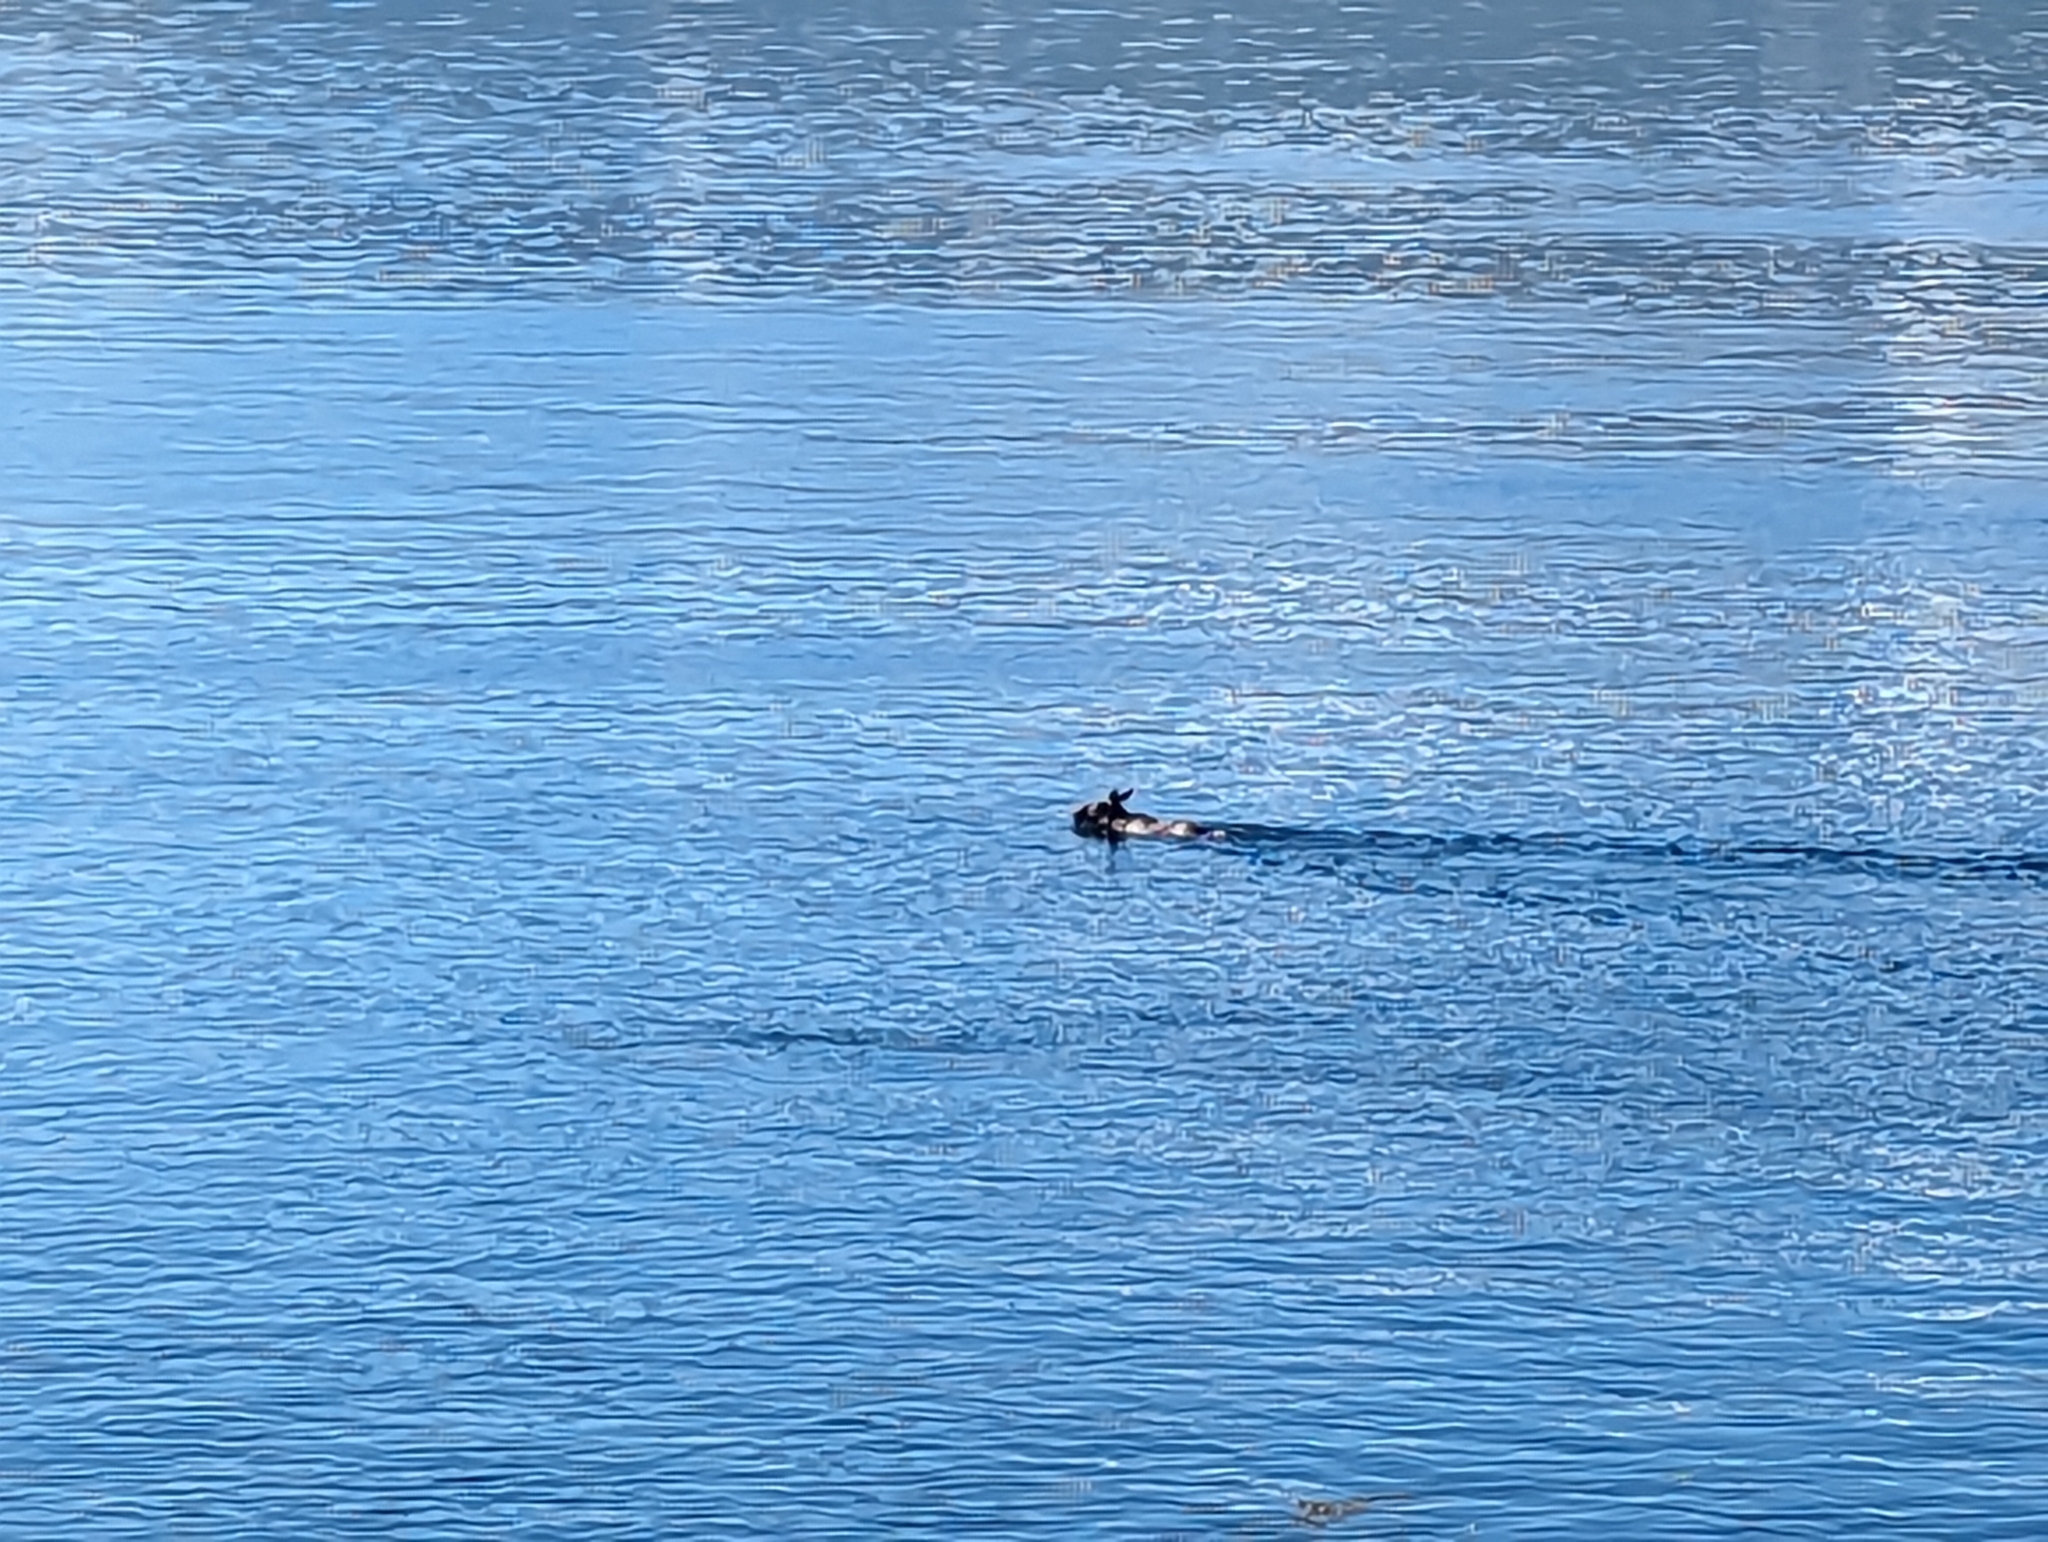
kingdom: Animalia
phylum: Chordata
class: Mammalia
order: Artiodactyla
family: Cervidae
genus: Alces
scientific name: Alces alces
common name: Moose
